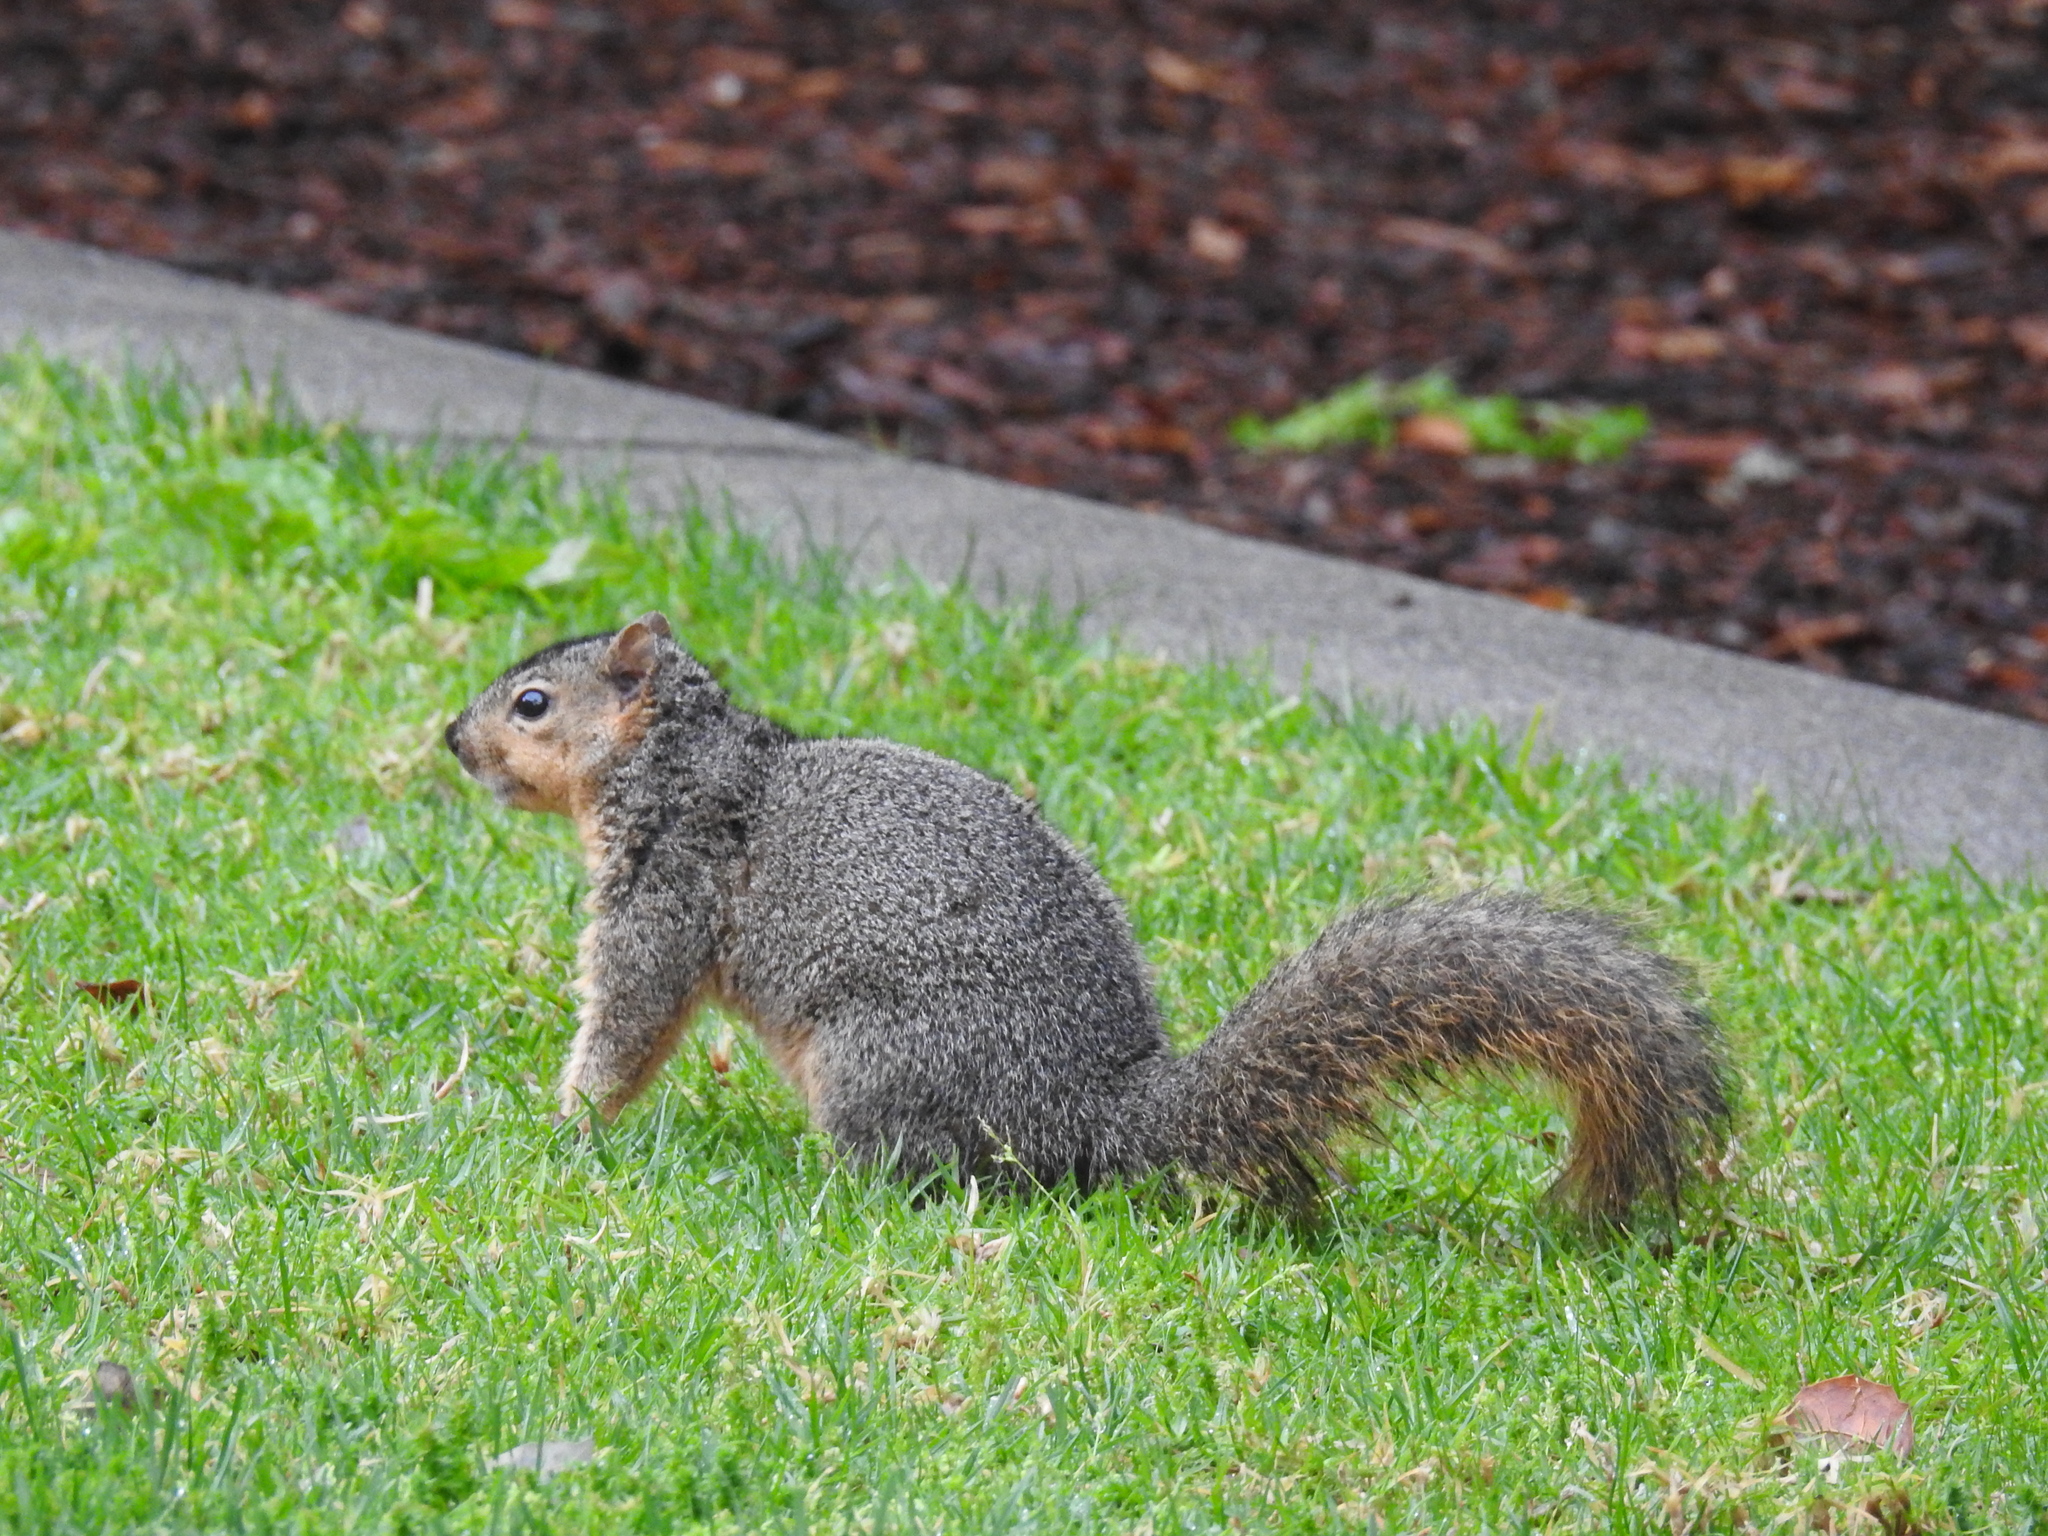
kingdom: Animalia
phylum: Chordata
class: Mammalia
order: Rodentia
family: Sciuridae
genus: Sciurus
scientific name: Sciurus niger
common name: Fox squirrel
